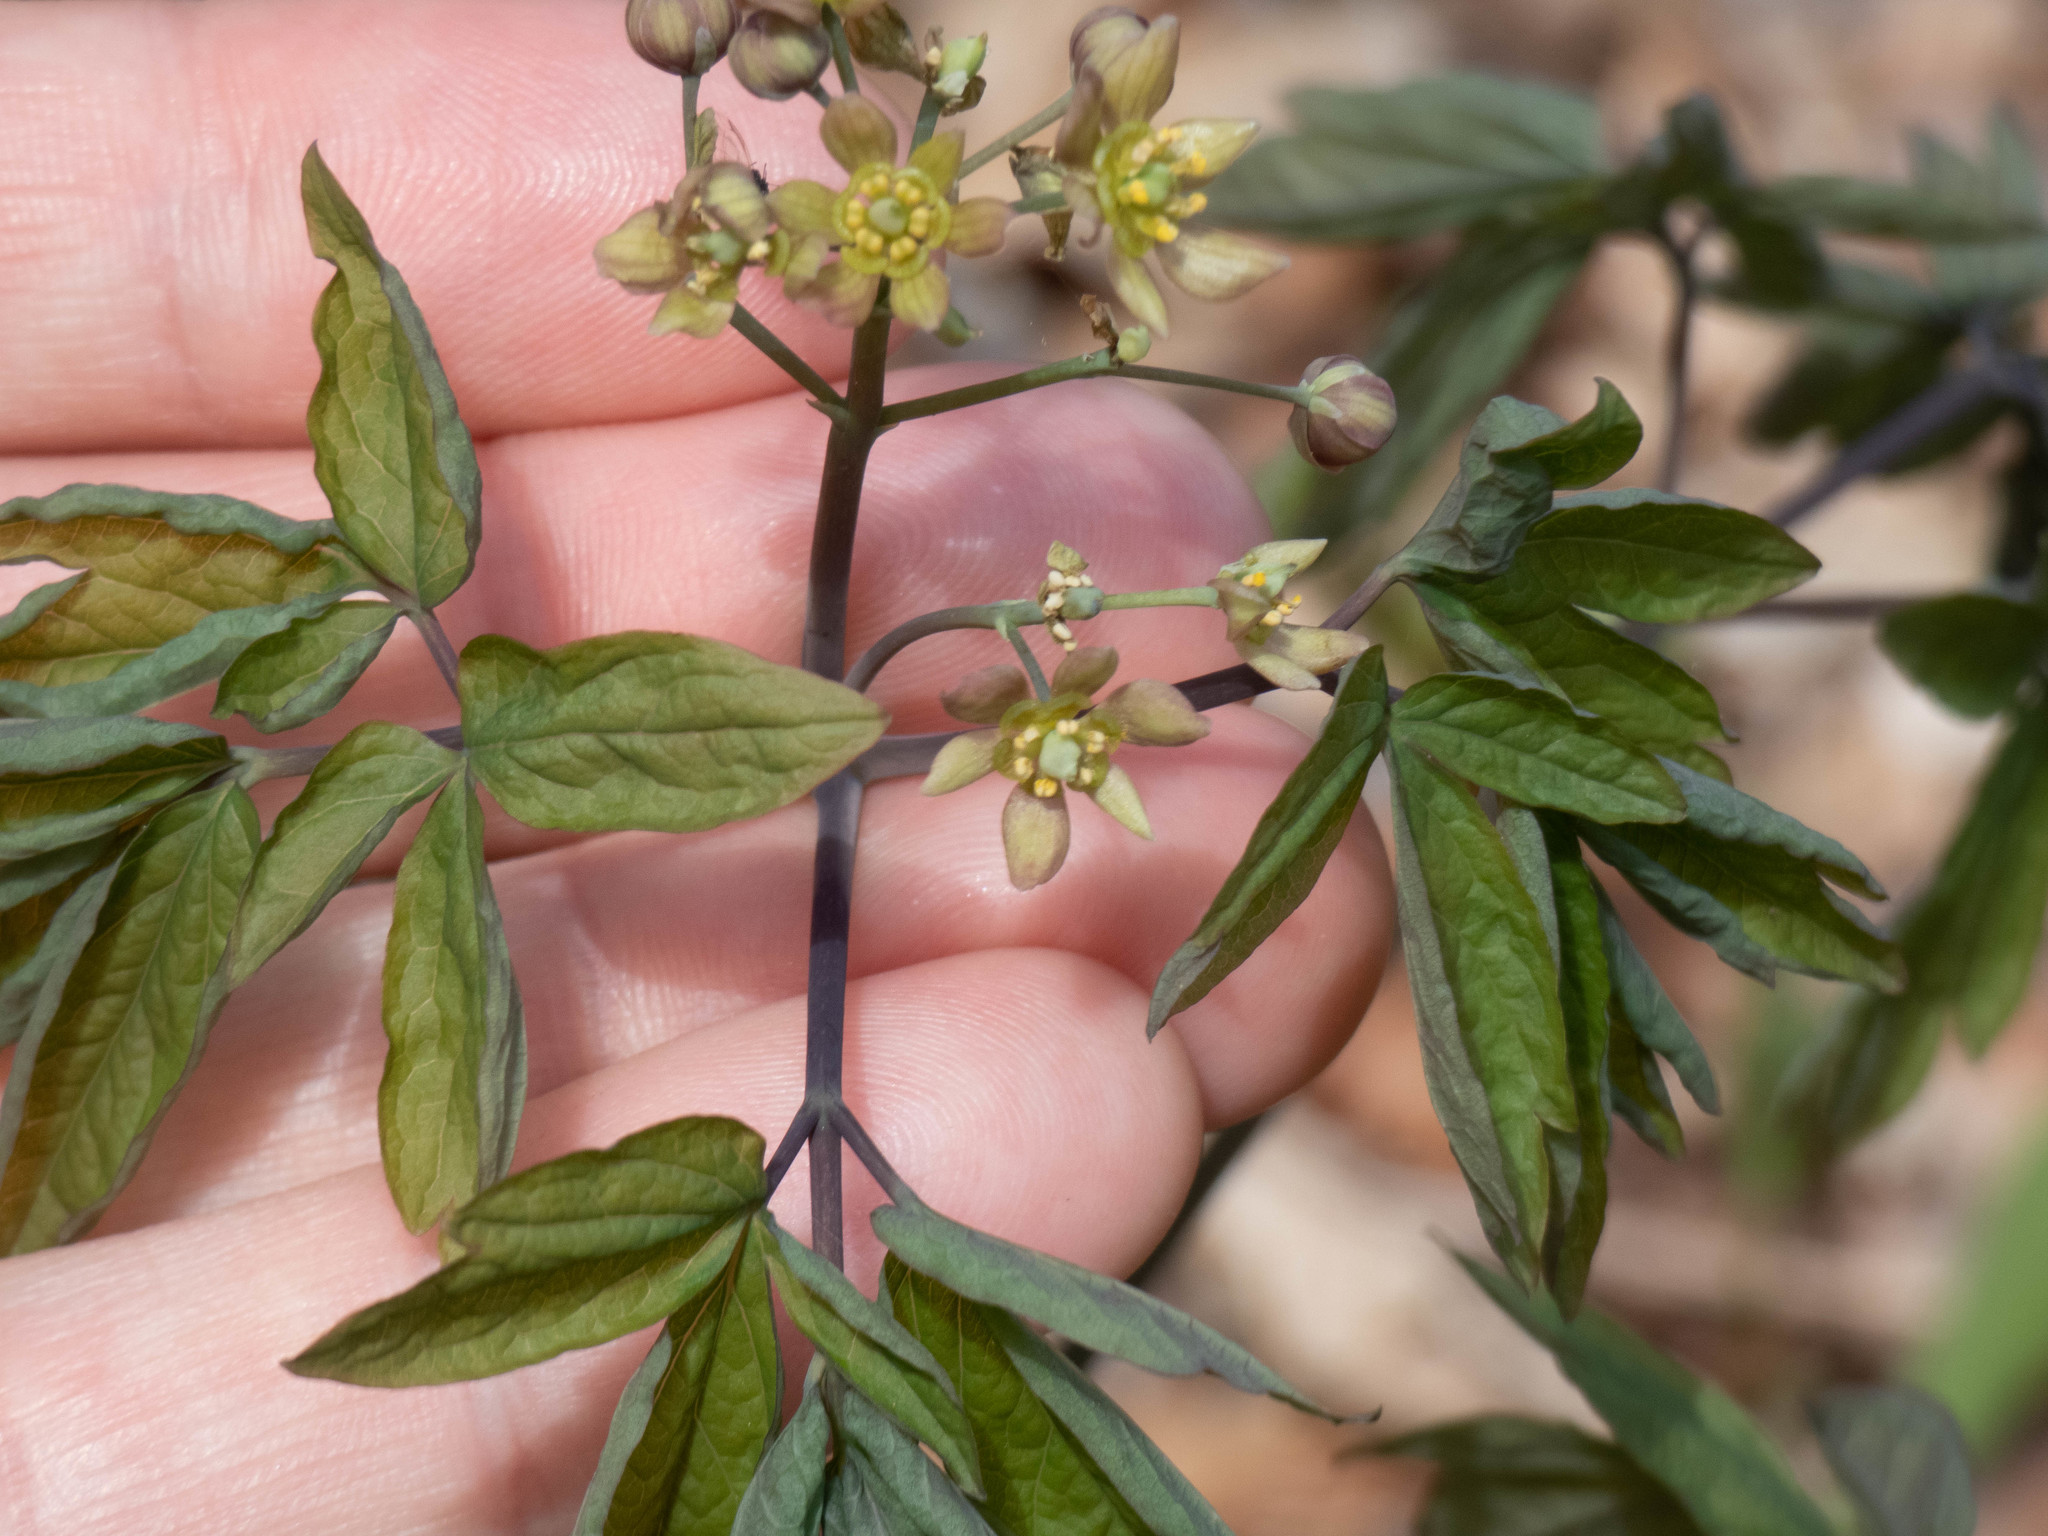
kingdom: Plantae
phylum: Tracheophyta
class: Magnoliopsida
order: Ranunculales
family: Berberidaceae
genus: Caulophyllum
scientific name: Caulophyllum giganteum
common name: Blue cohosh
